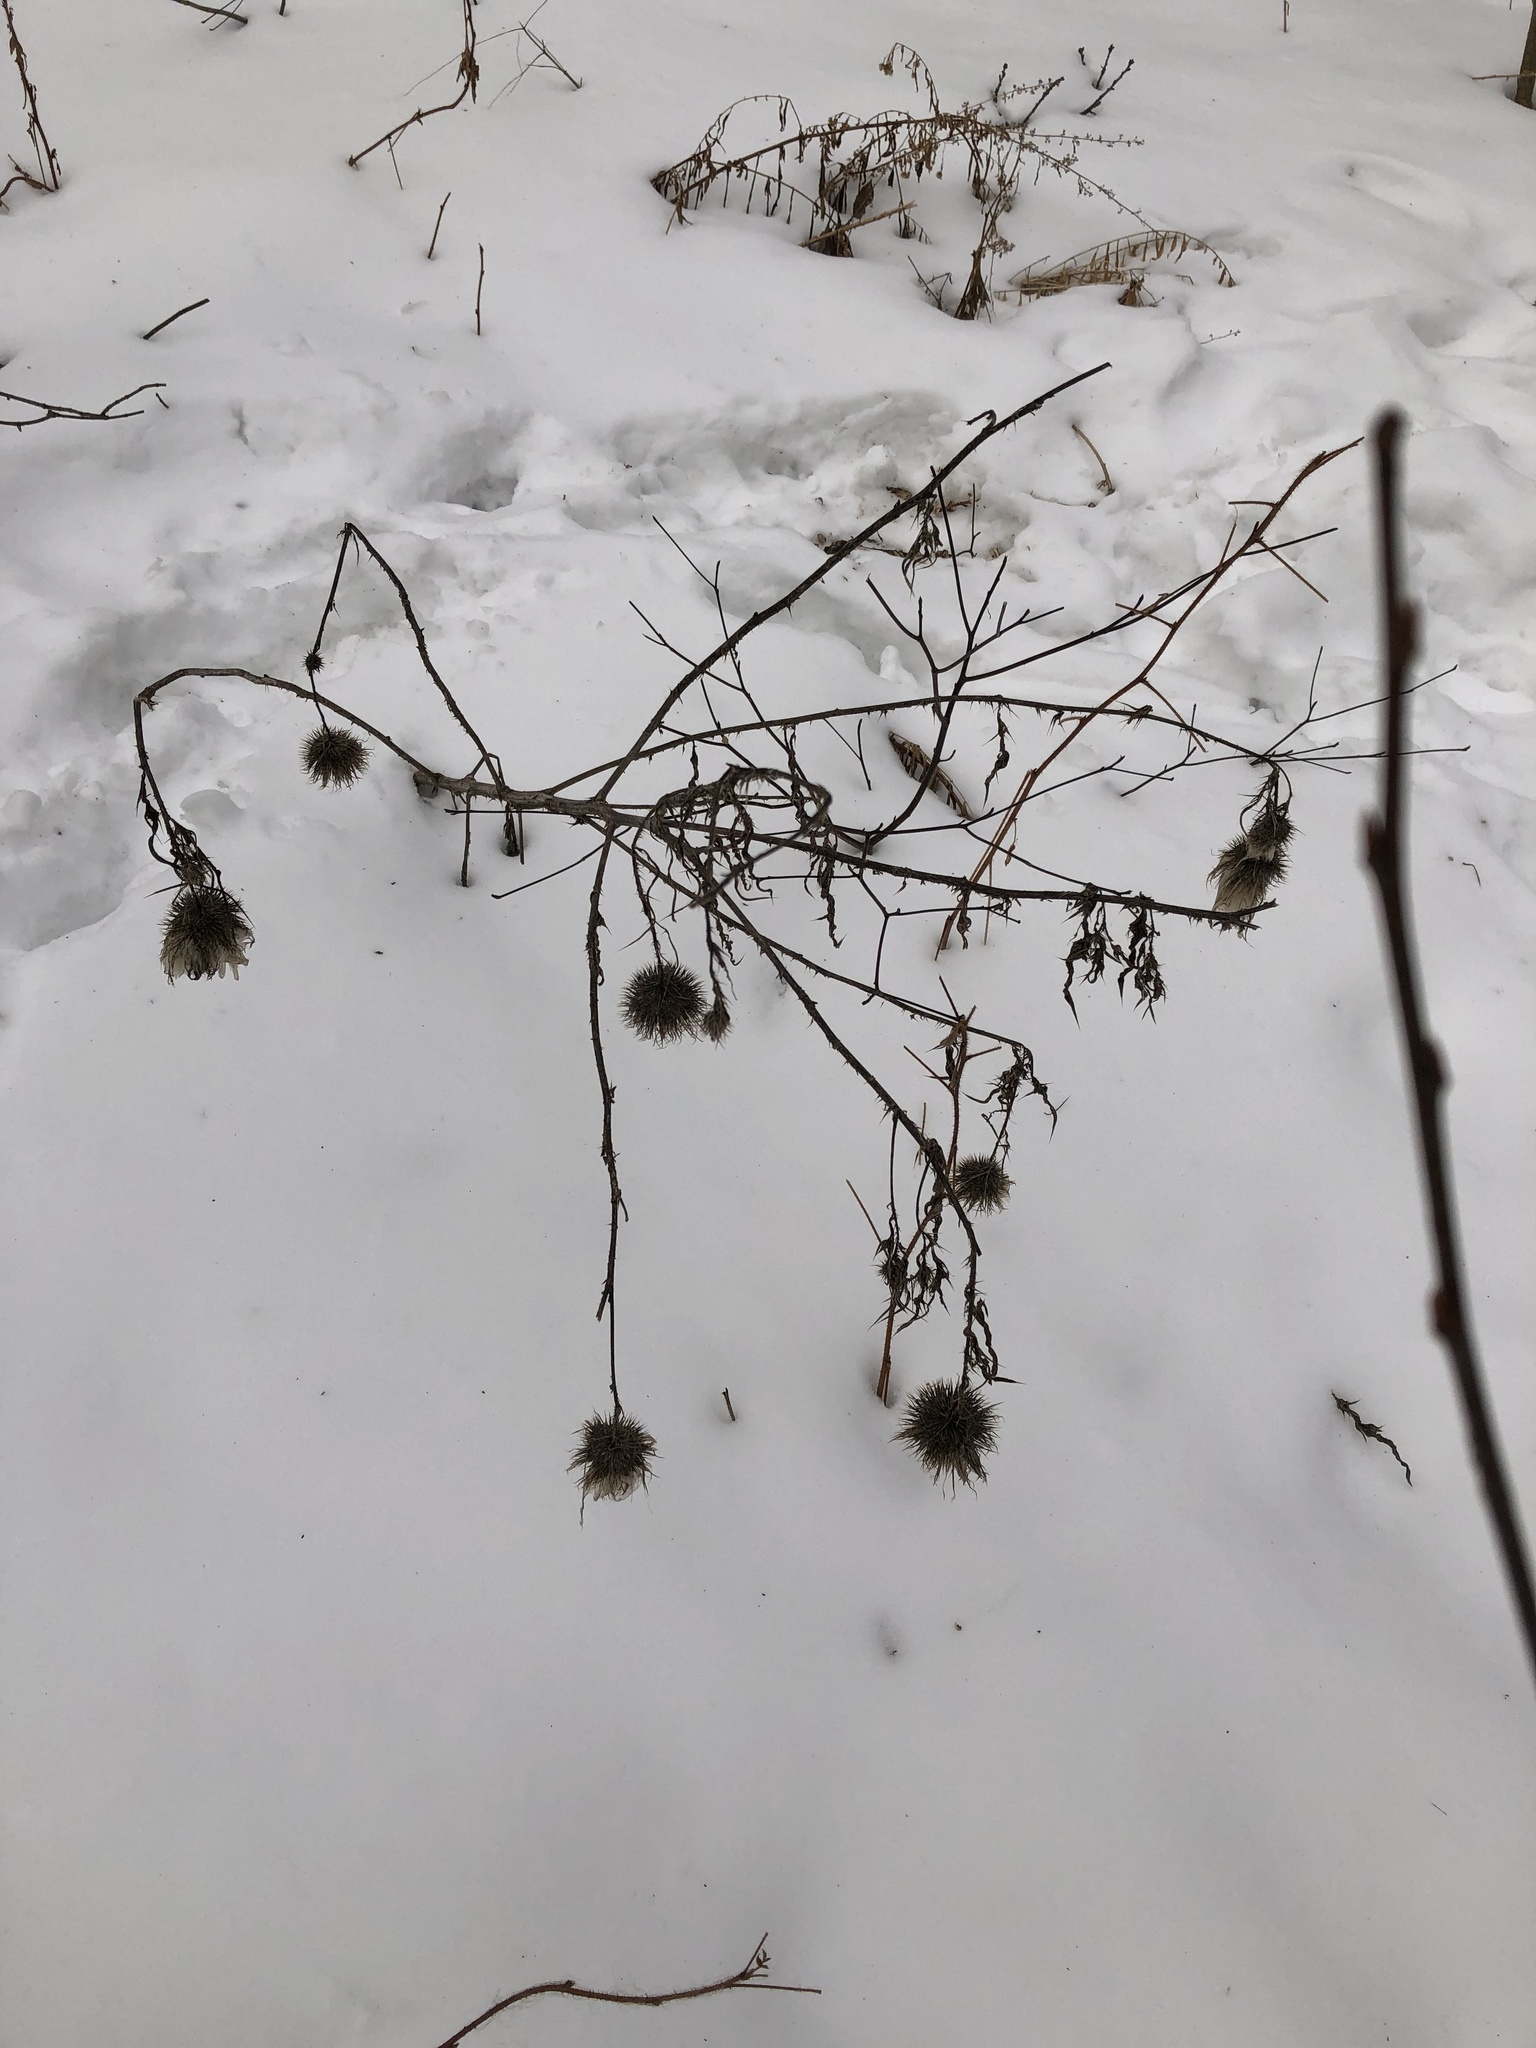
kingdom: Plantae
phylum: Tracheophyta
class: Magnoliopsida
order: Asterales
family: Asteraceae
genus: Cirsium
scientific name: Cirsium vulgare
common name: Bull thistle
